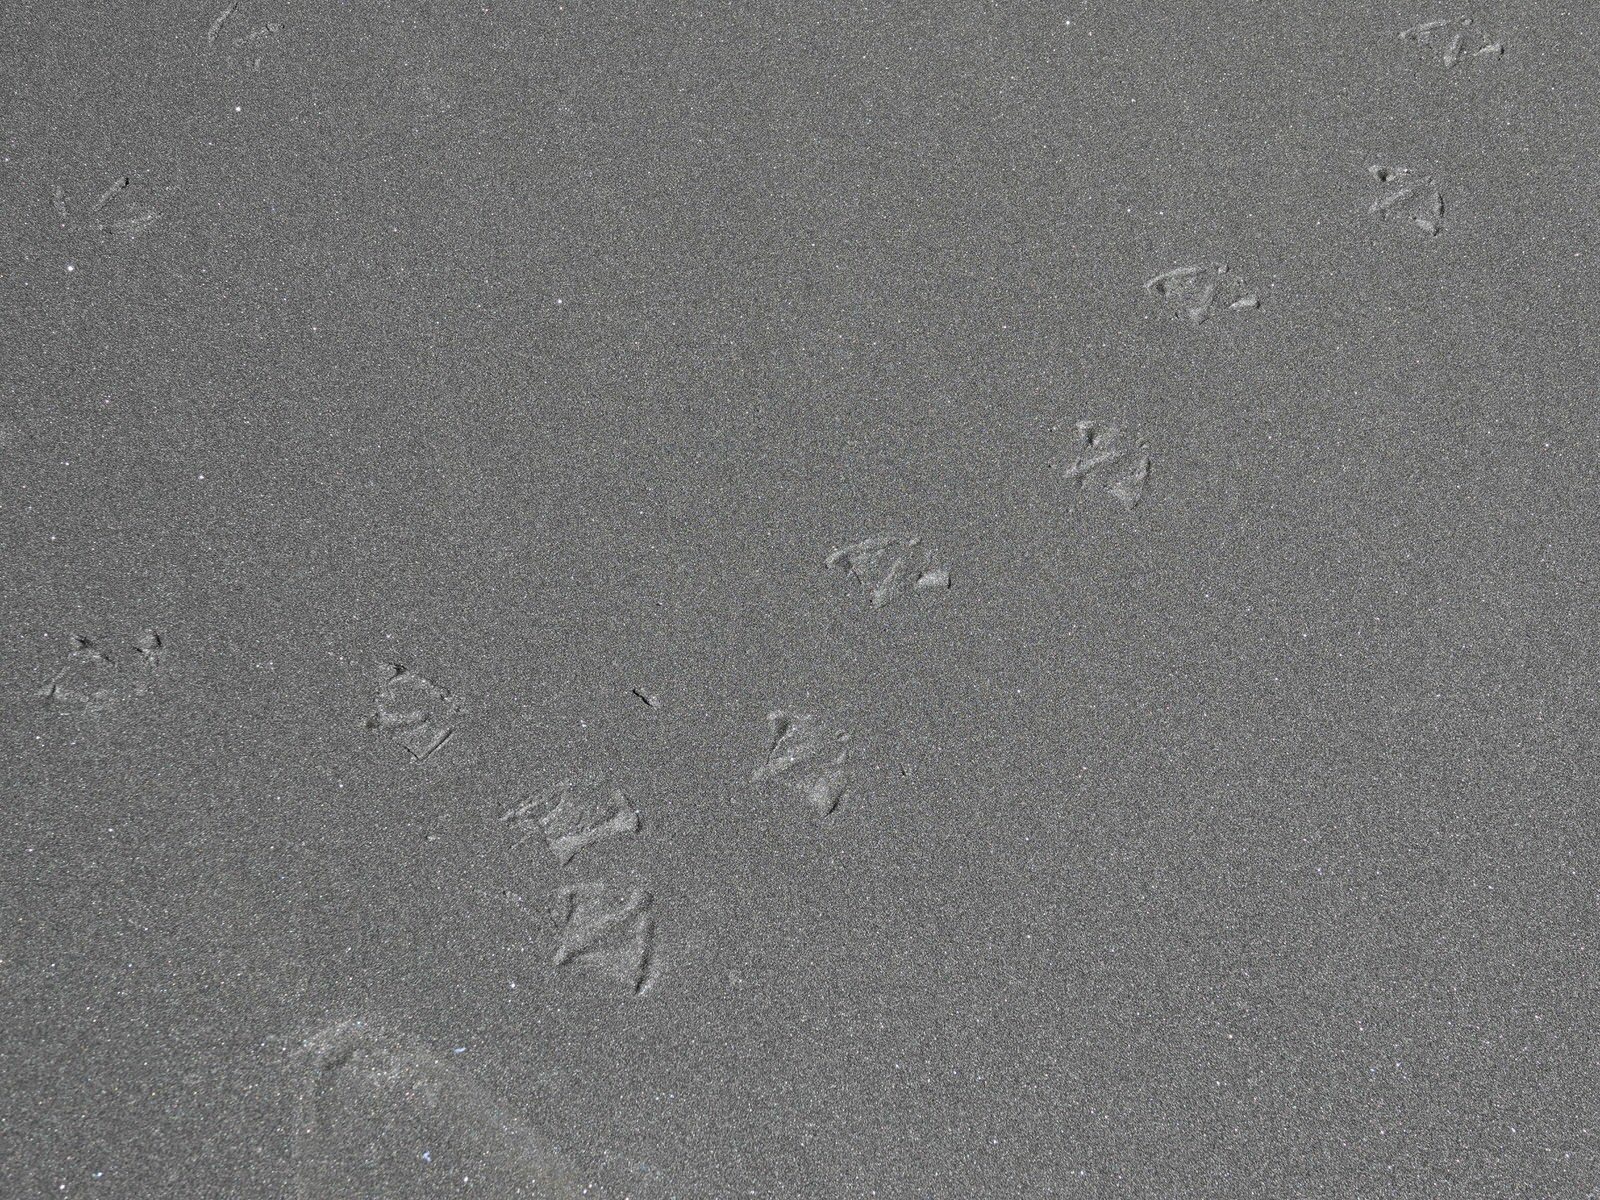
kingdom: Animalia
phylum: Chordata
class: Aves
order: Sphenisciformes
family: Spheniscidae
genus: Eudyptula
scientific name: Eudyptula minor
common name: Little penguin
